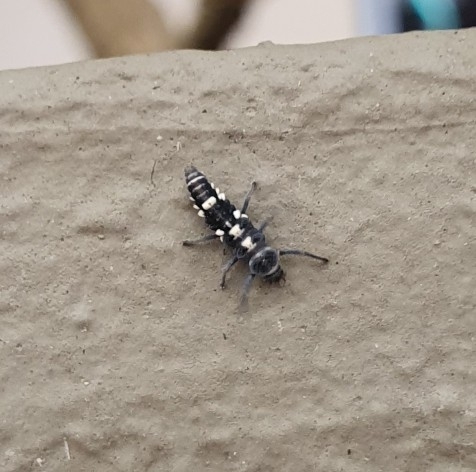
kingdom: Animalia
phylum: Arthropoda
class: Insecta
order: Coleoptera
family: Coccinellidae
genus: Coelophora
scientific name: Coelophora inaequalis
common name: Common australian lady beetle
